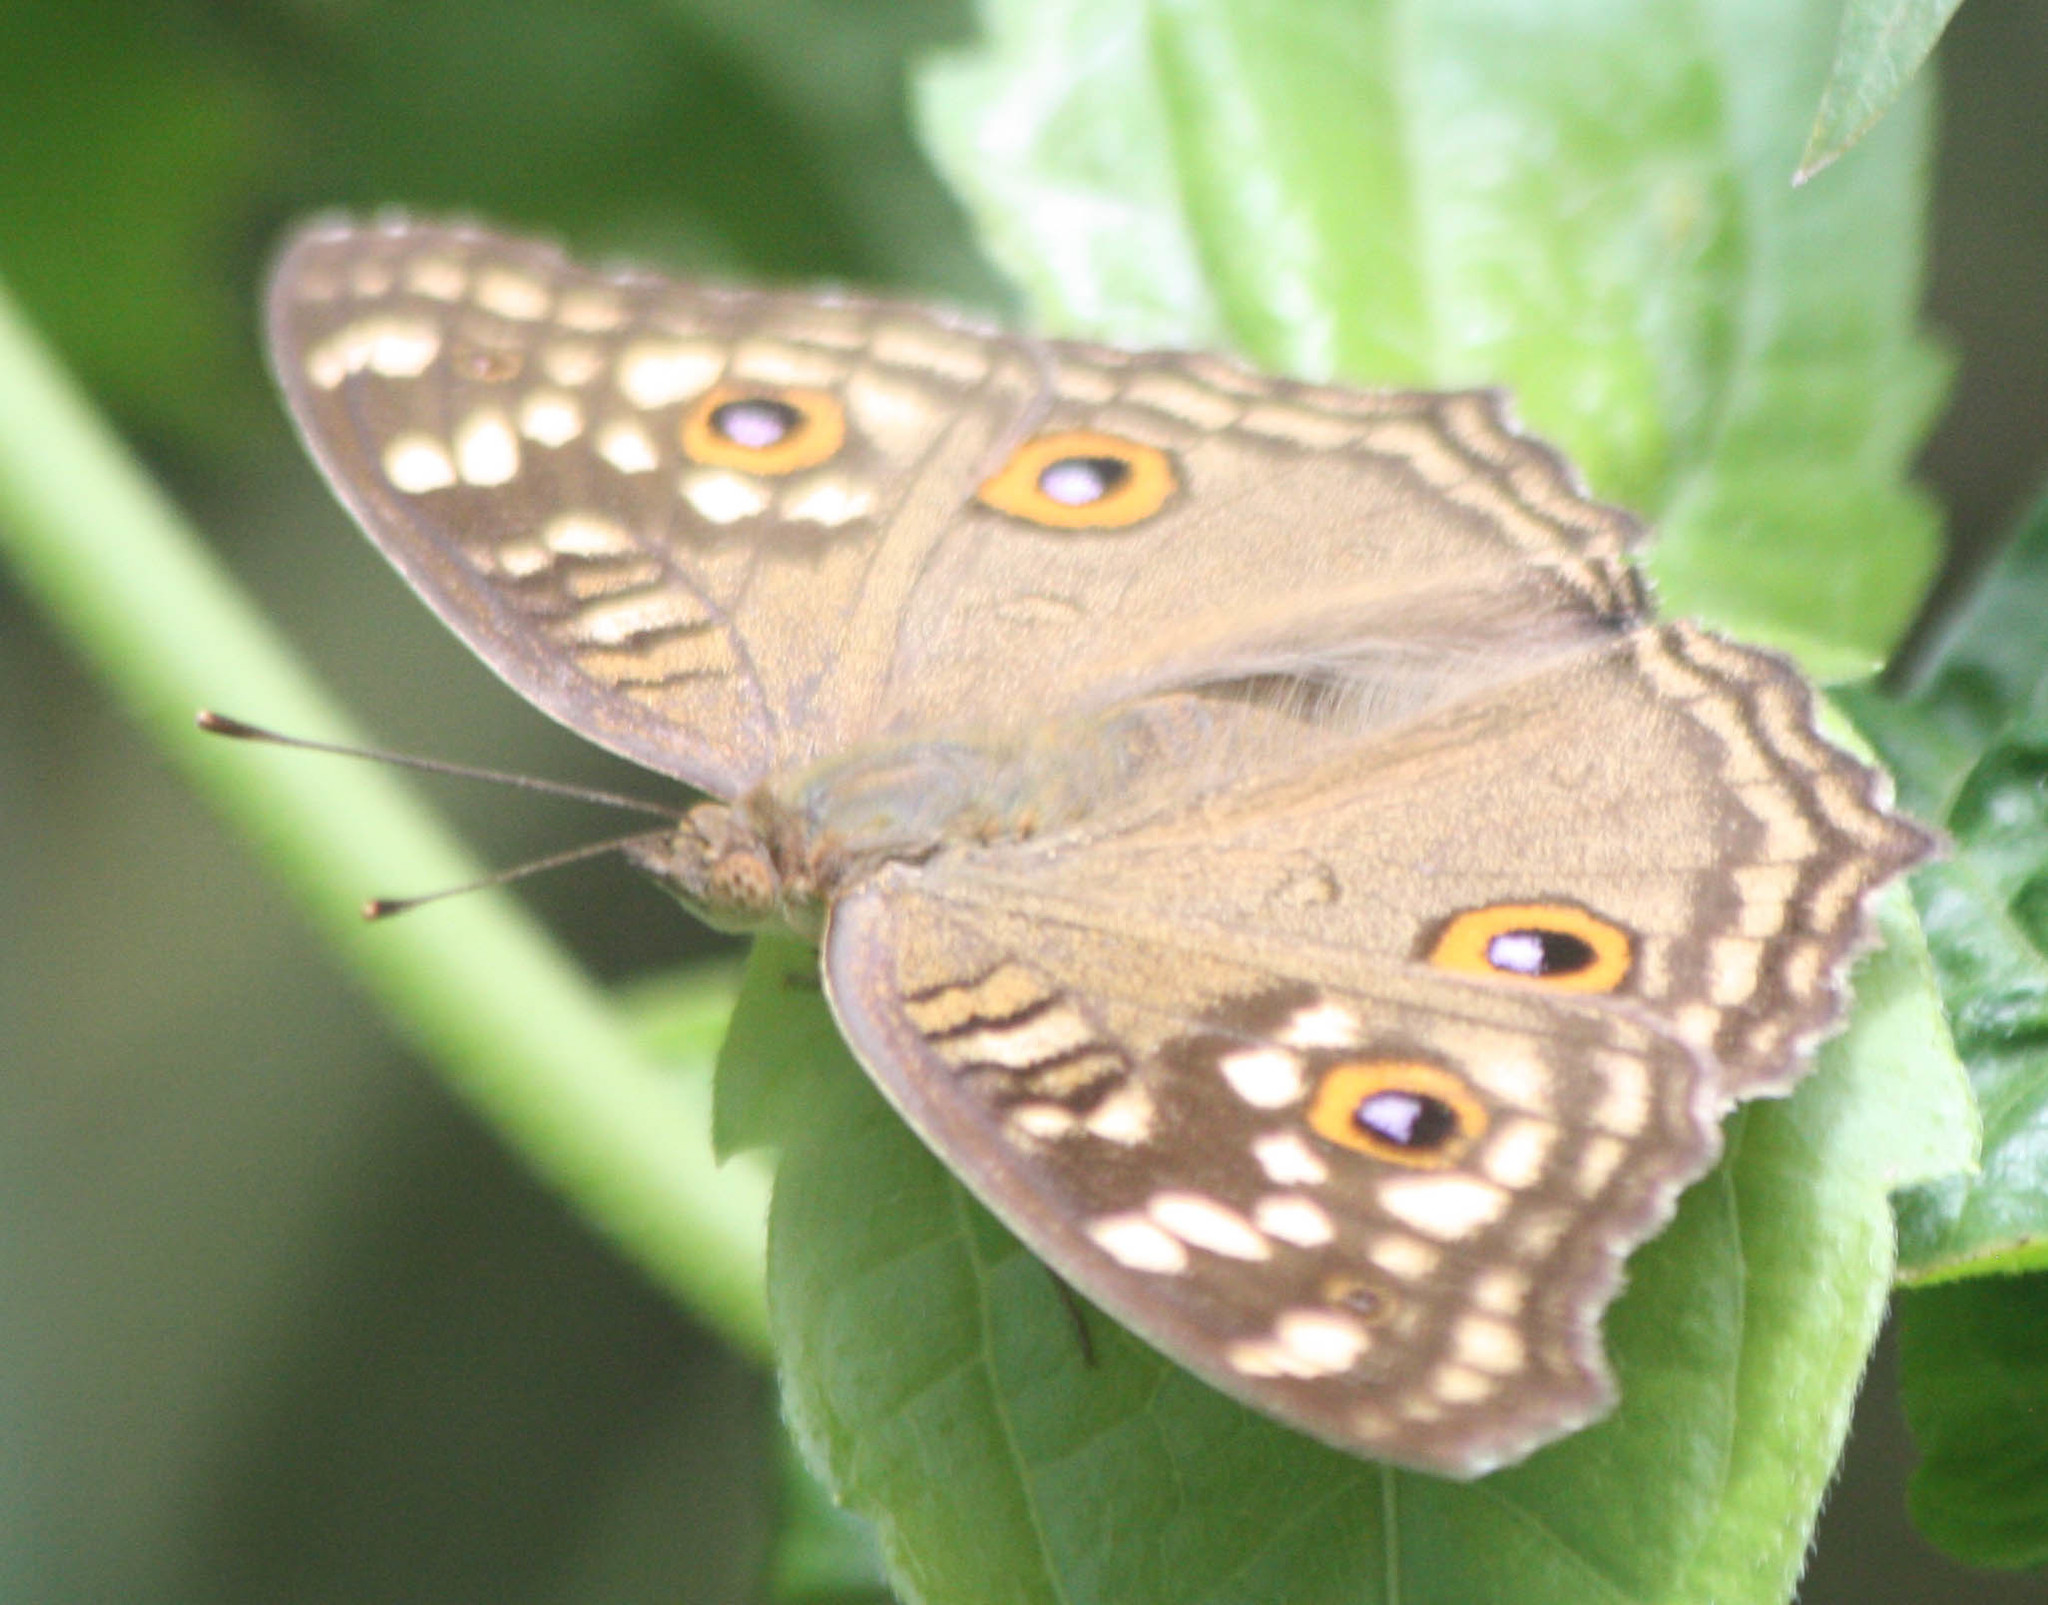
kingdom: Animalia
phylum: Arthropoda
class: Insecta
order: Lepidoptera
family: Nymphalidae
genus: Junonia
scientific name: Junonia lemonias
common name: Lemon pansy
